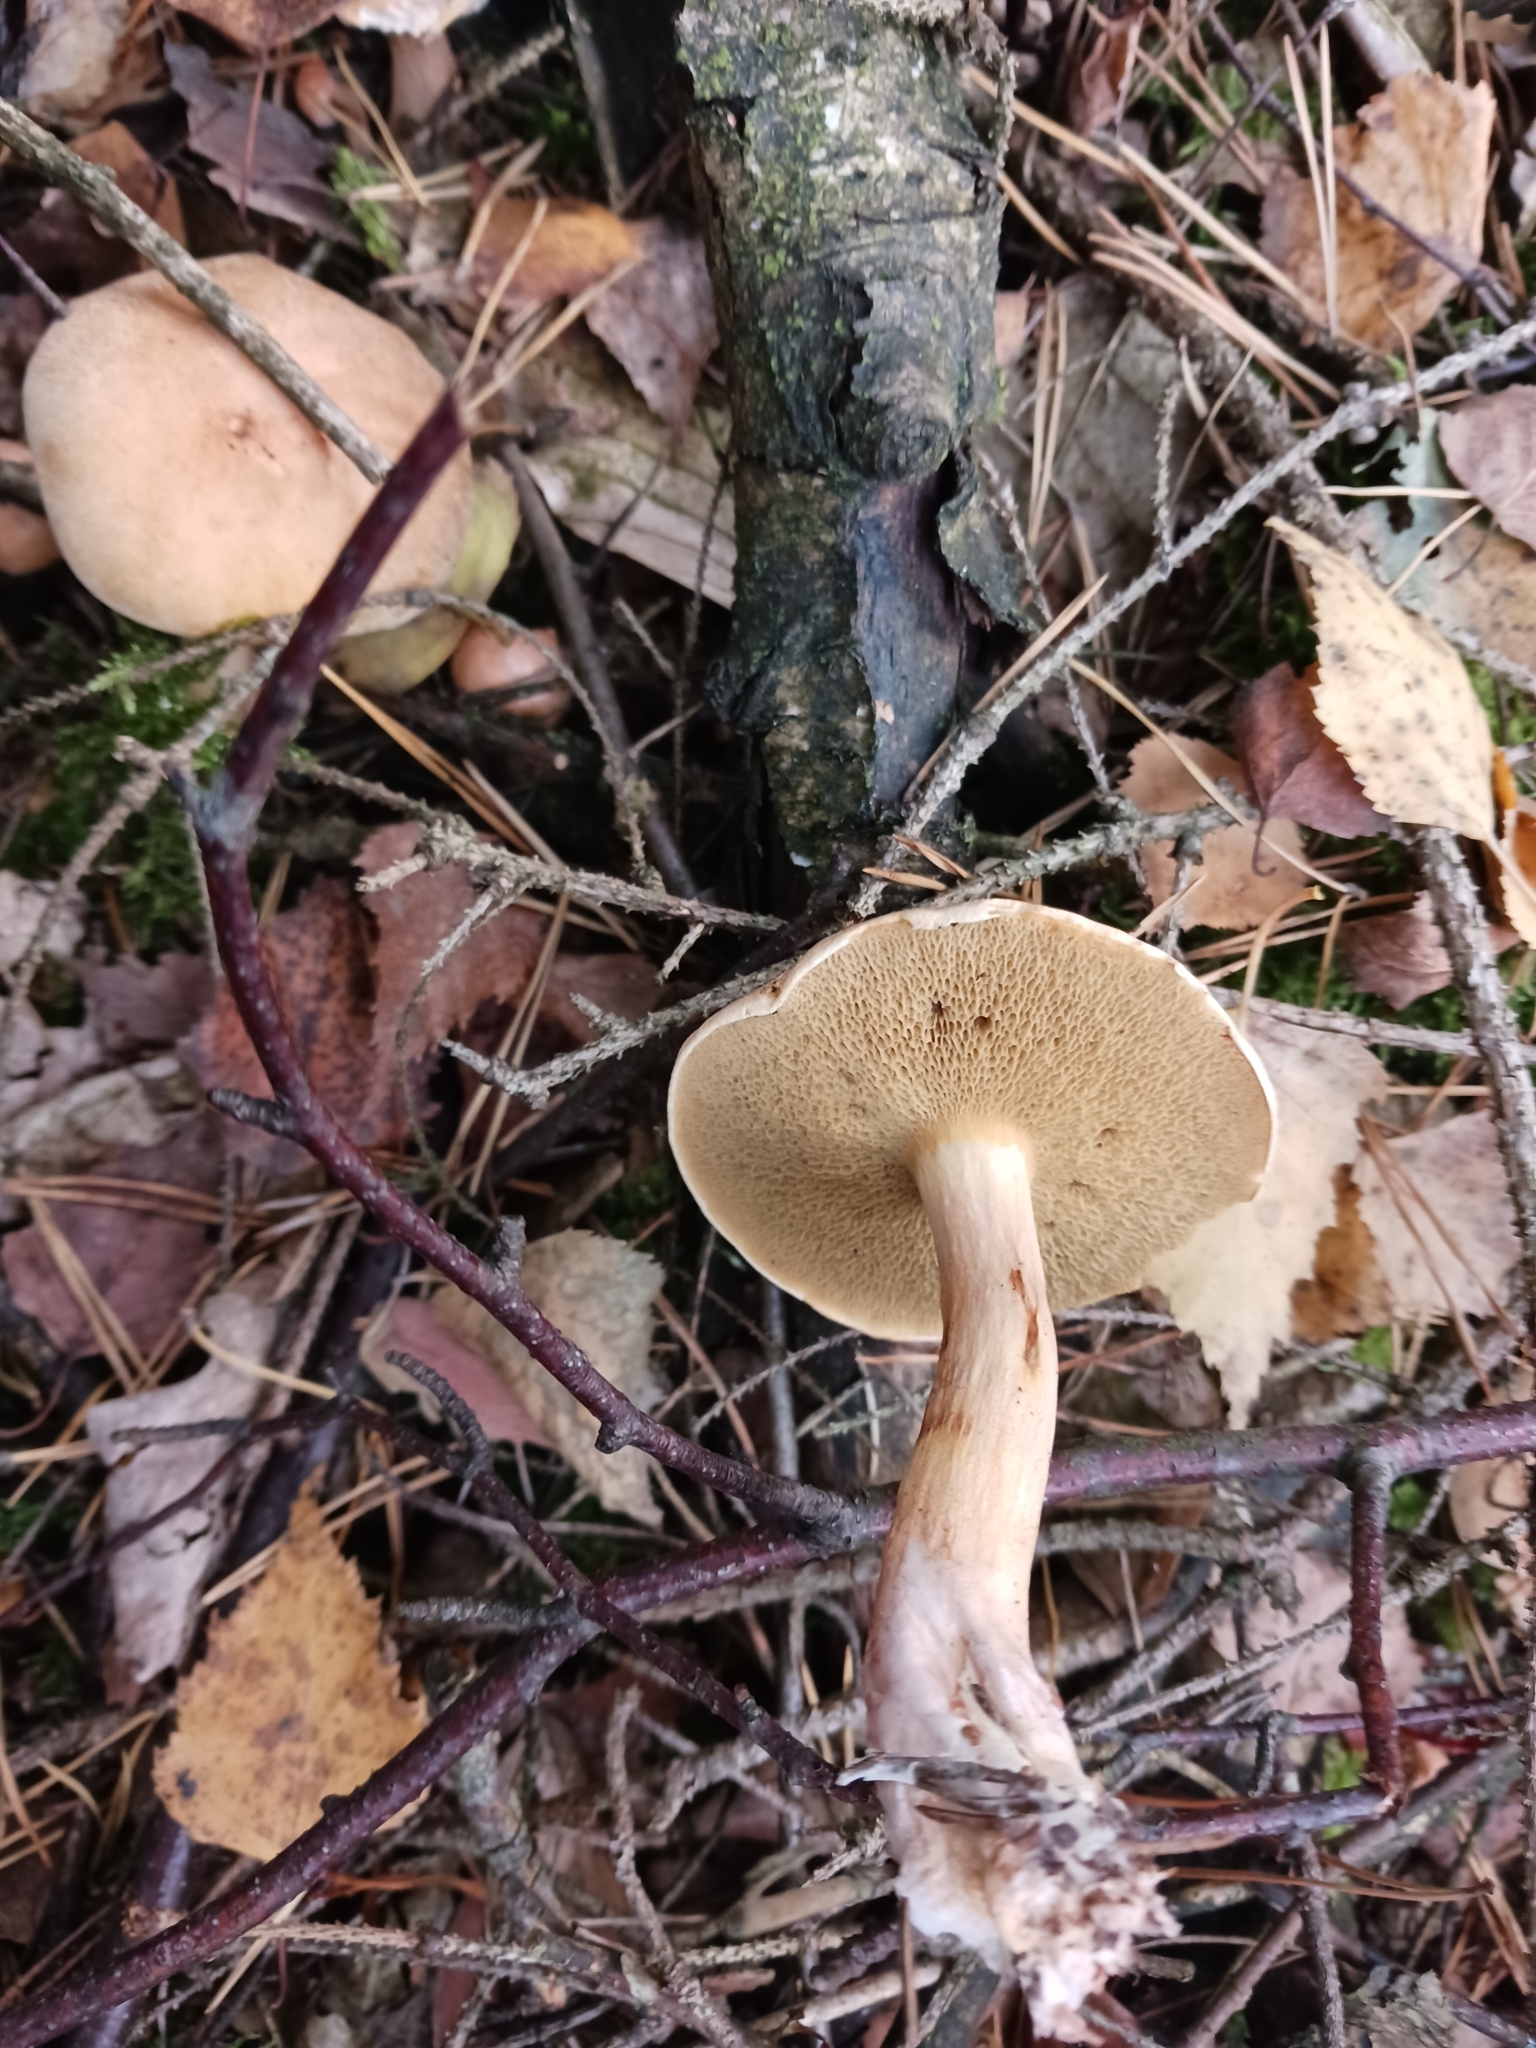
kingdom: Fungi
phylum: Basidiomycota
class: Agaricomycetes
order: Boletales
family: Suillaceae
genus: Suillus
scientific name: Suillus bovinus
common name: Bovine bolete
